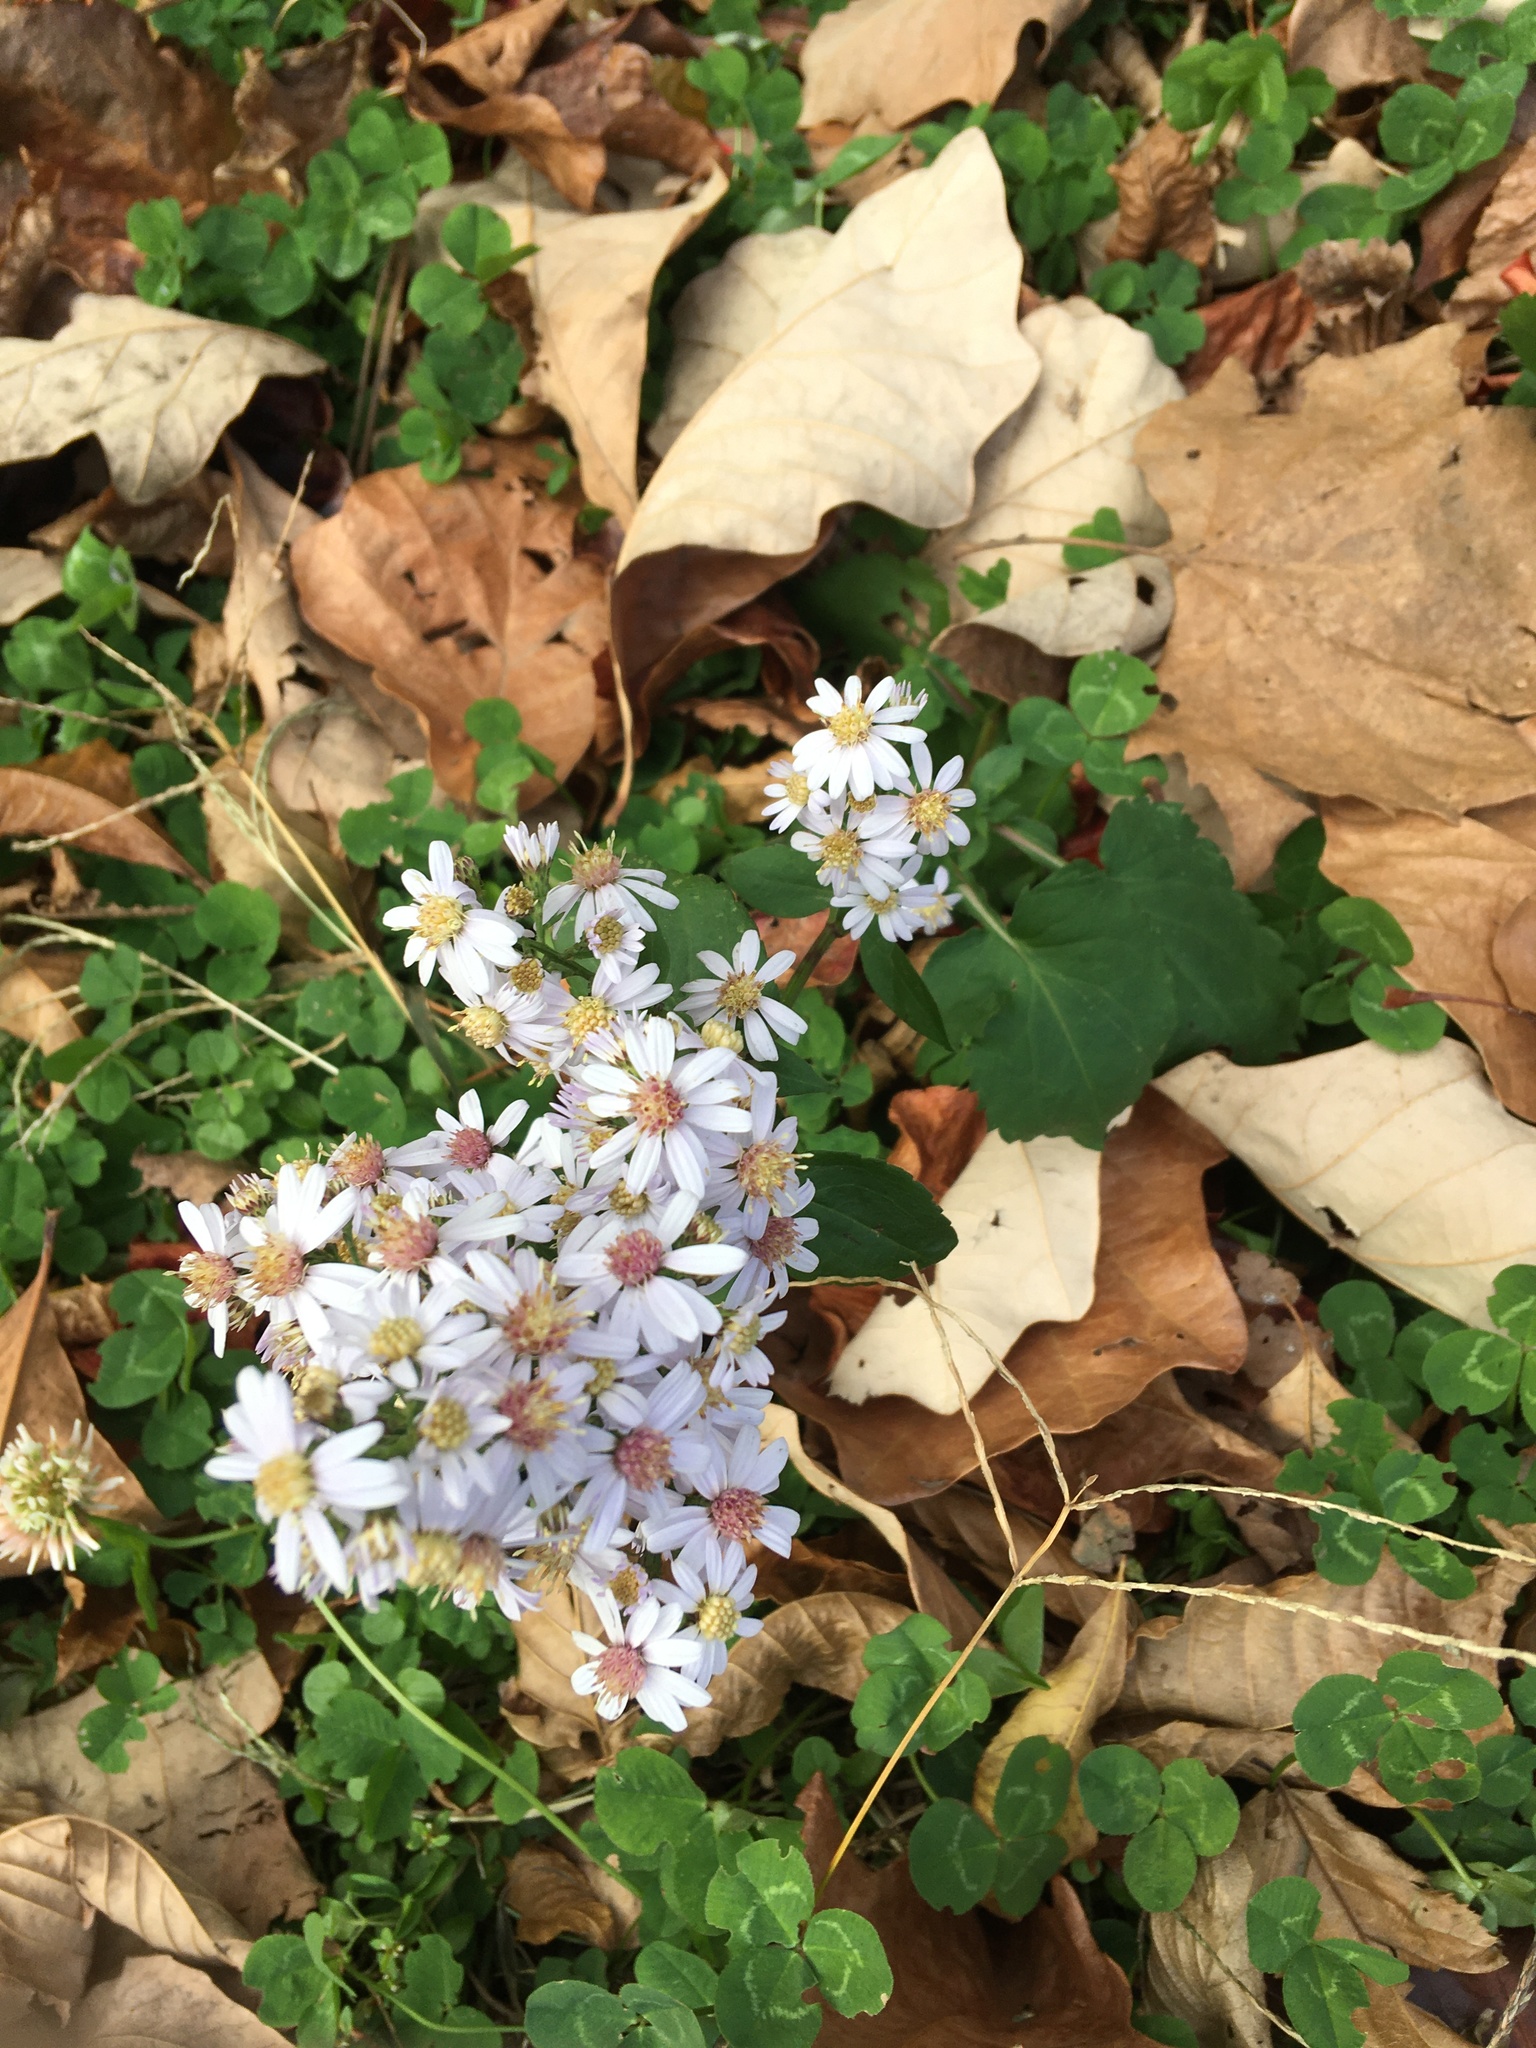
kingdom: Plantae
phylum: Tracheophyta
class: Magnoliopsida
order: Asterales
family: Asteraceae
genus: Symphyotrichum
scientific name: Symphyotrichum cordifolium
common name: Beeweed
